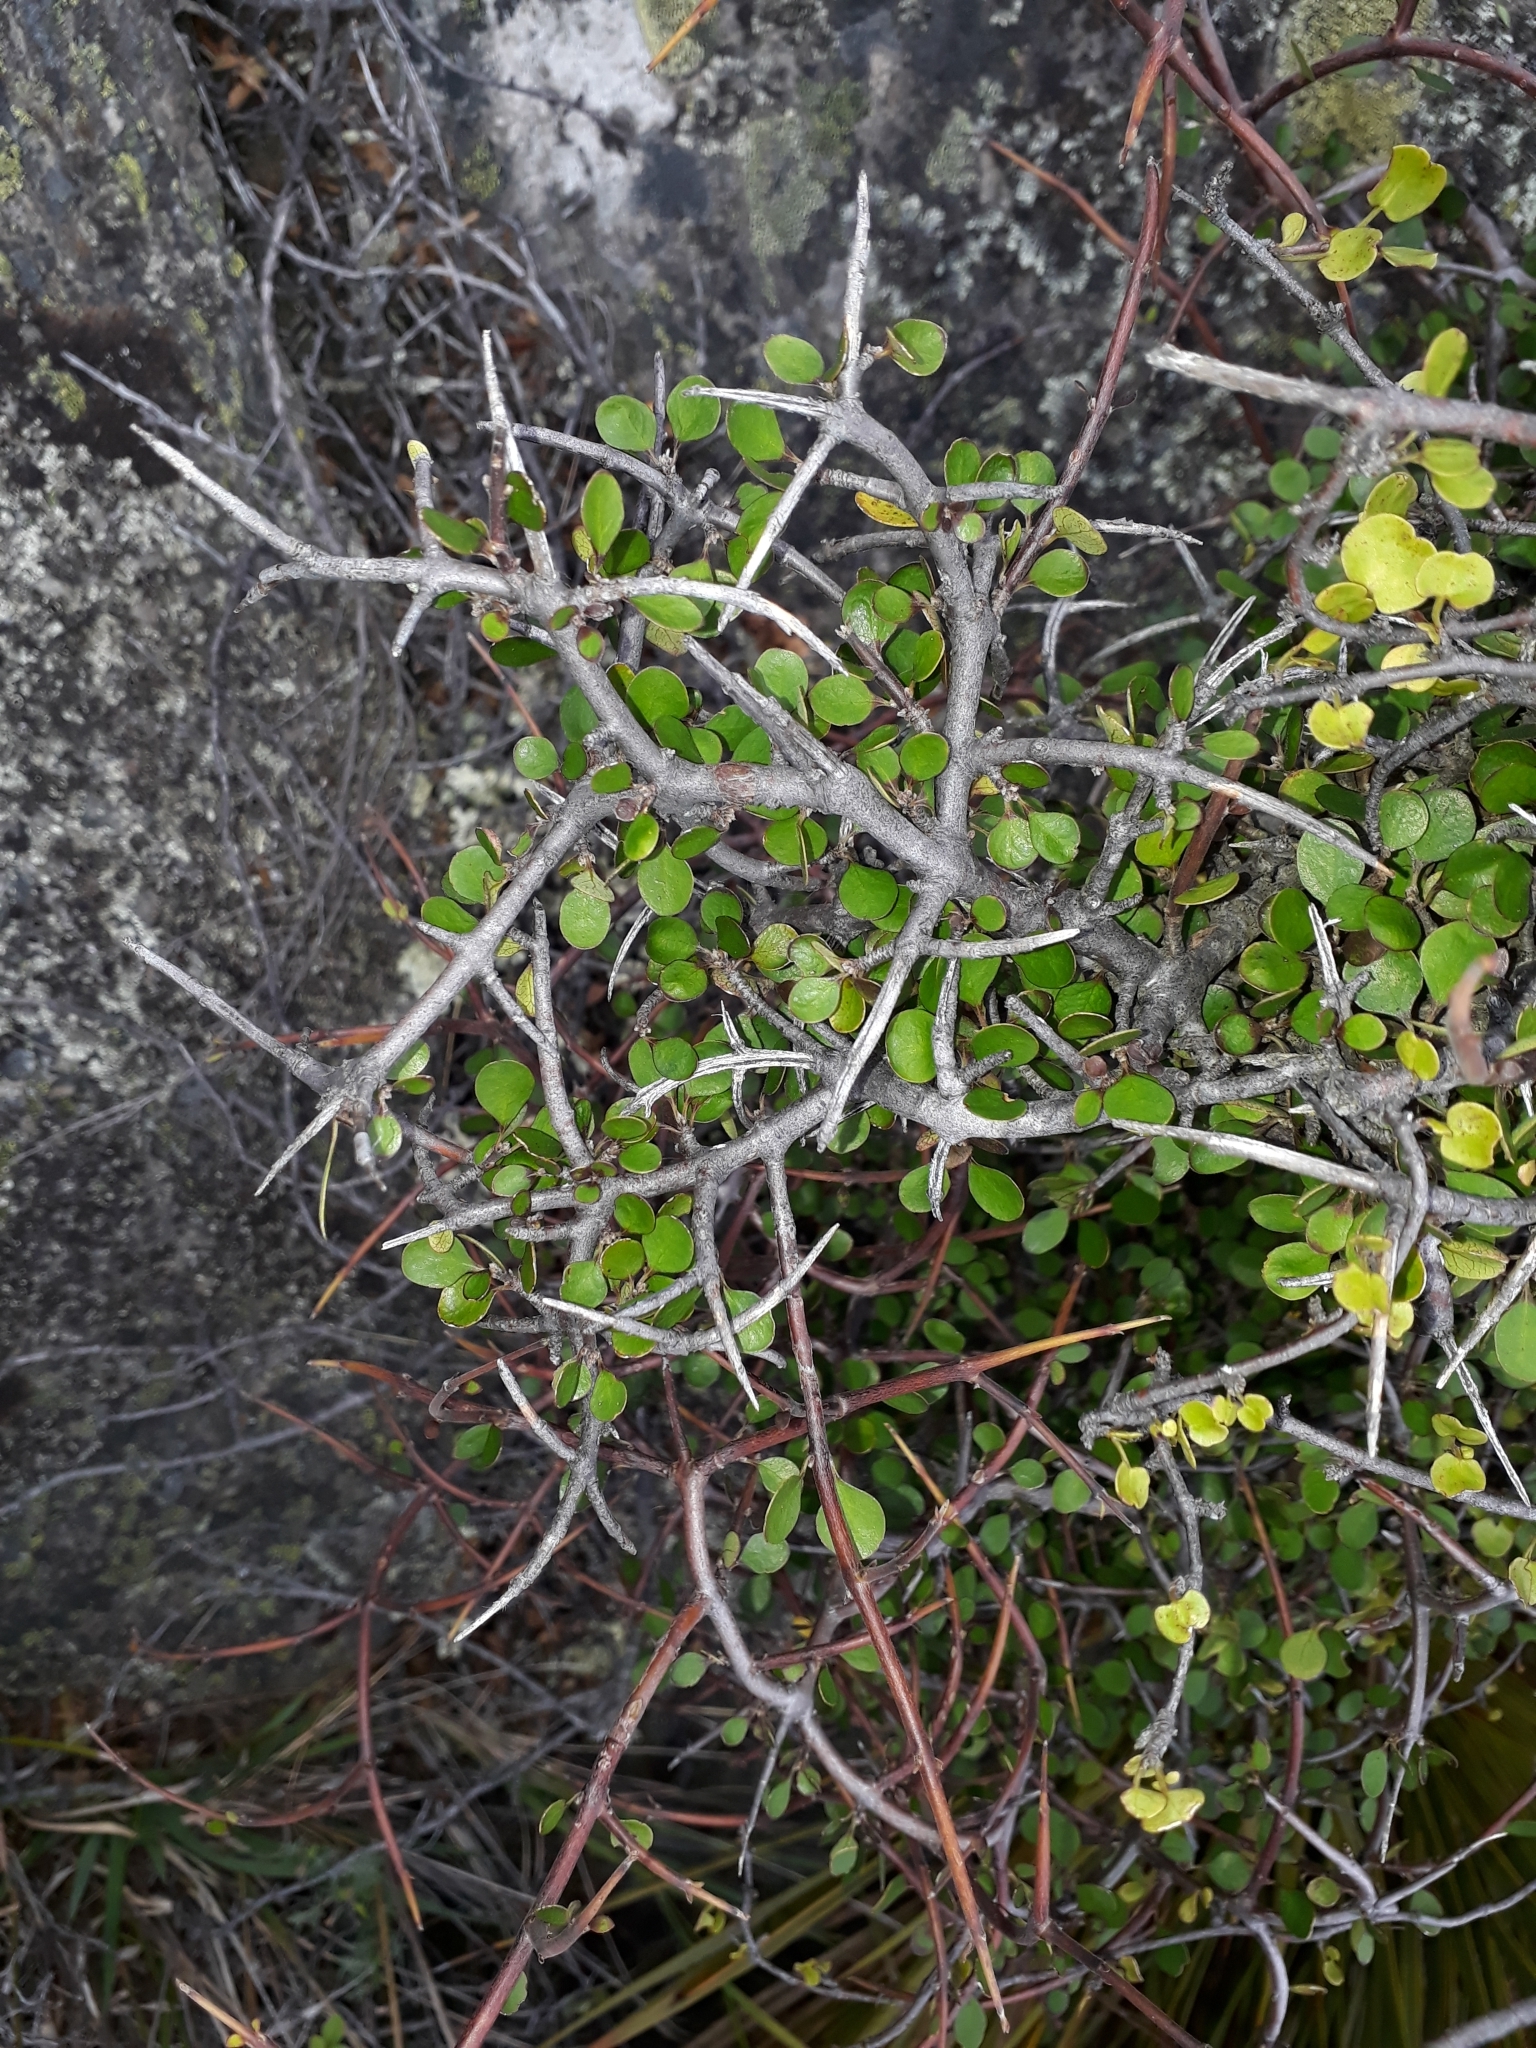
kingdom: Plantae
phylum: Tracheophyta
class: Magnoliopsida
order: Oxalidales
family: Elaeocarpaceae
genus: Aristotelia
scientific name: Aristotelia fruticosa
